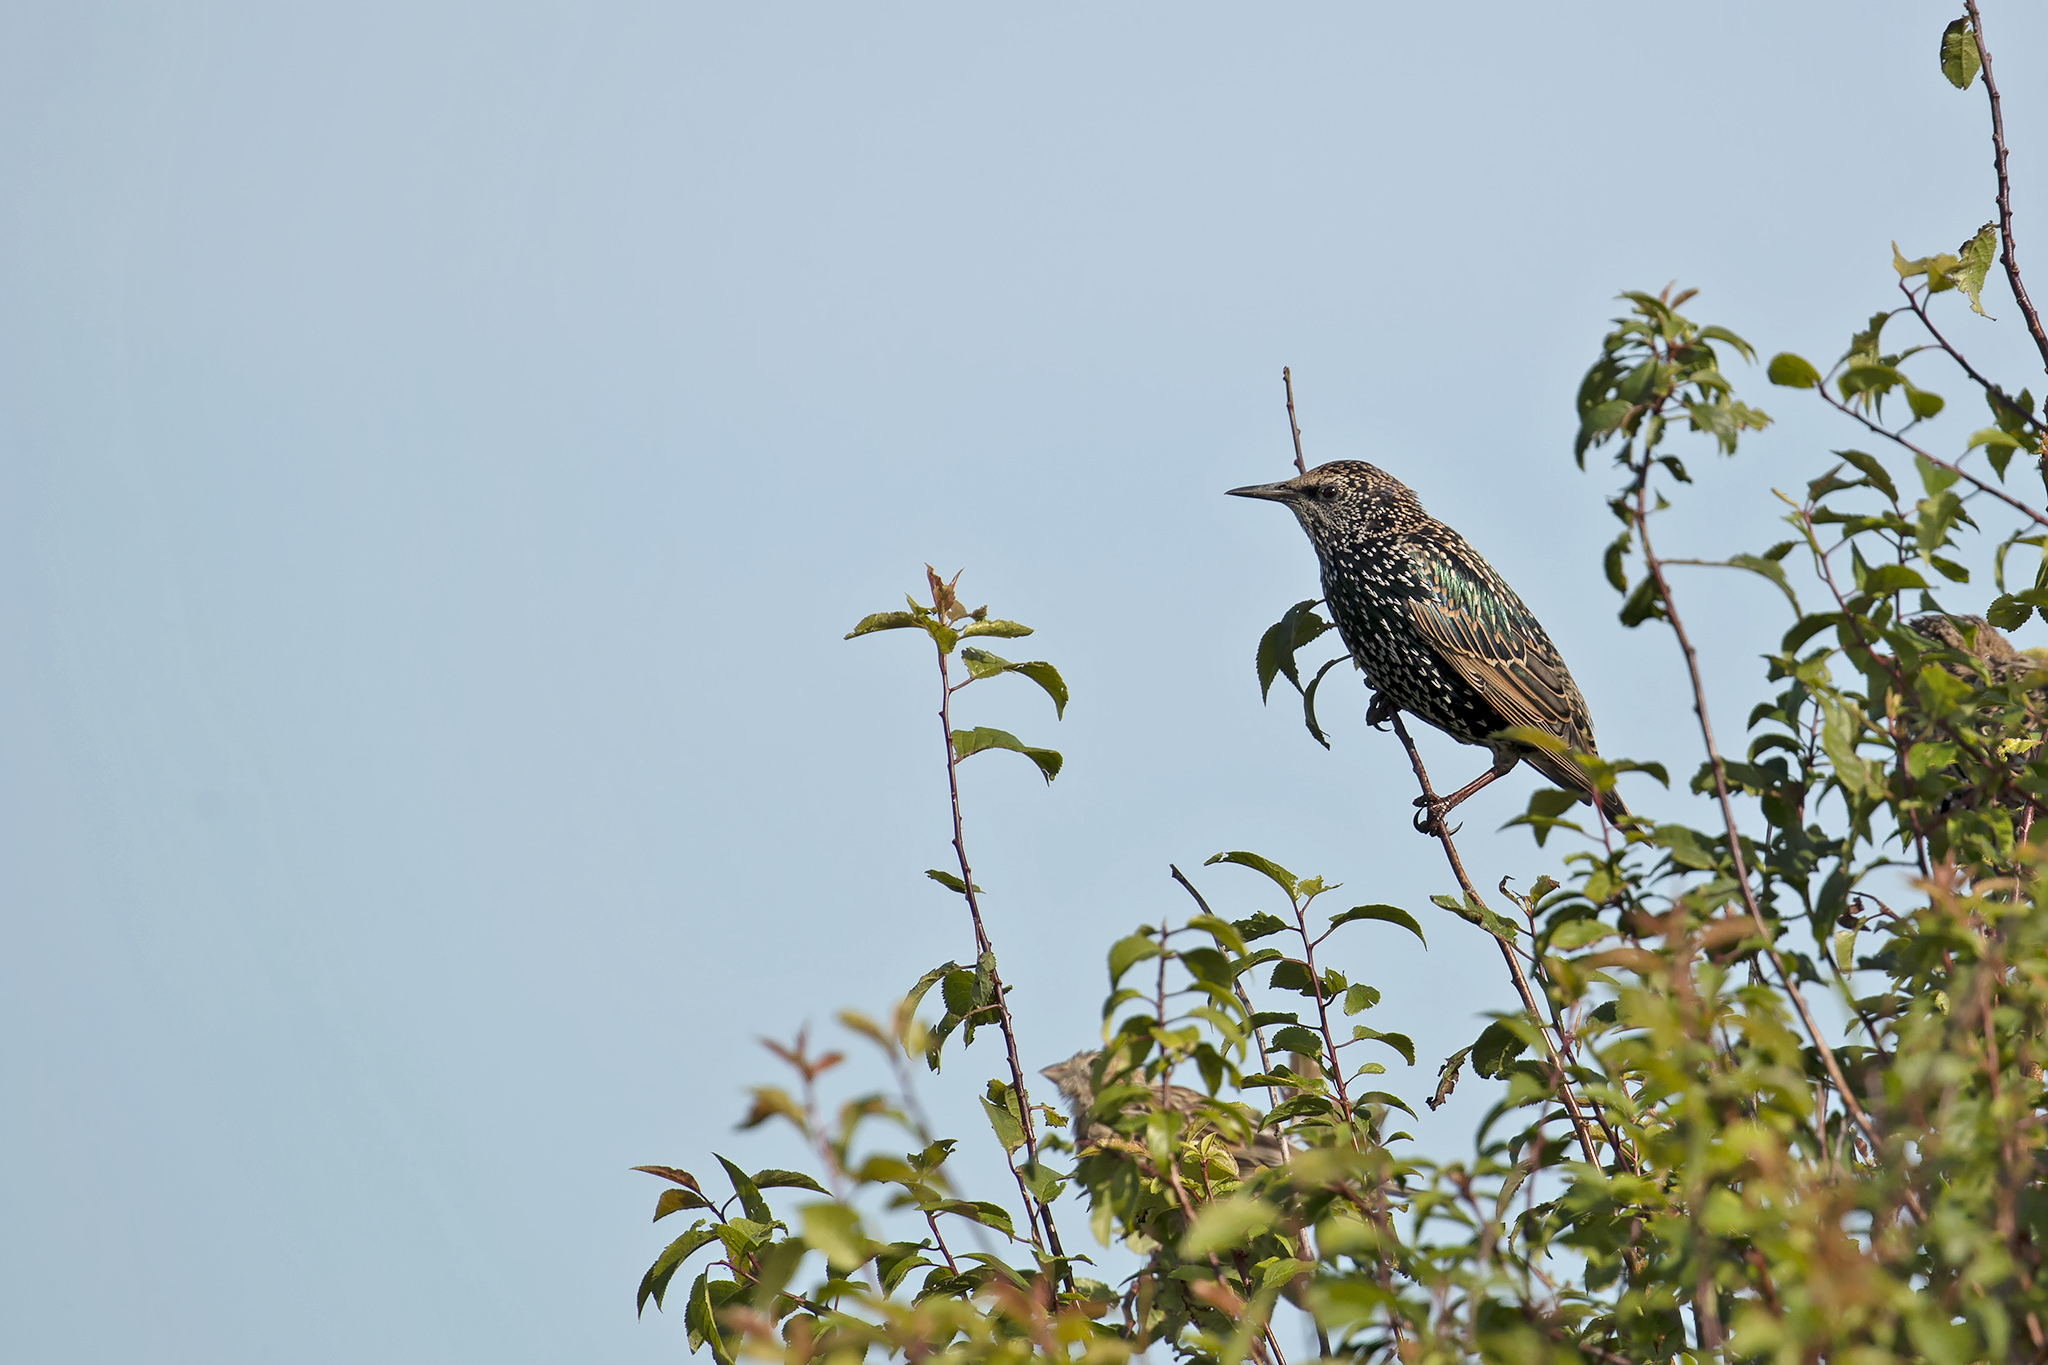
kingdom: Animalia
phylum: Chordata
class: Aves
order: Passeriformes
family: Sturnidae
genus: Sturnus
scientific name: Sturnus vulgaris
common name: Common starling
